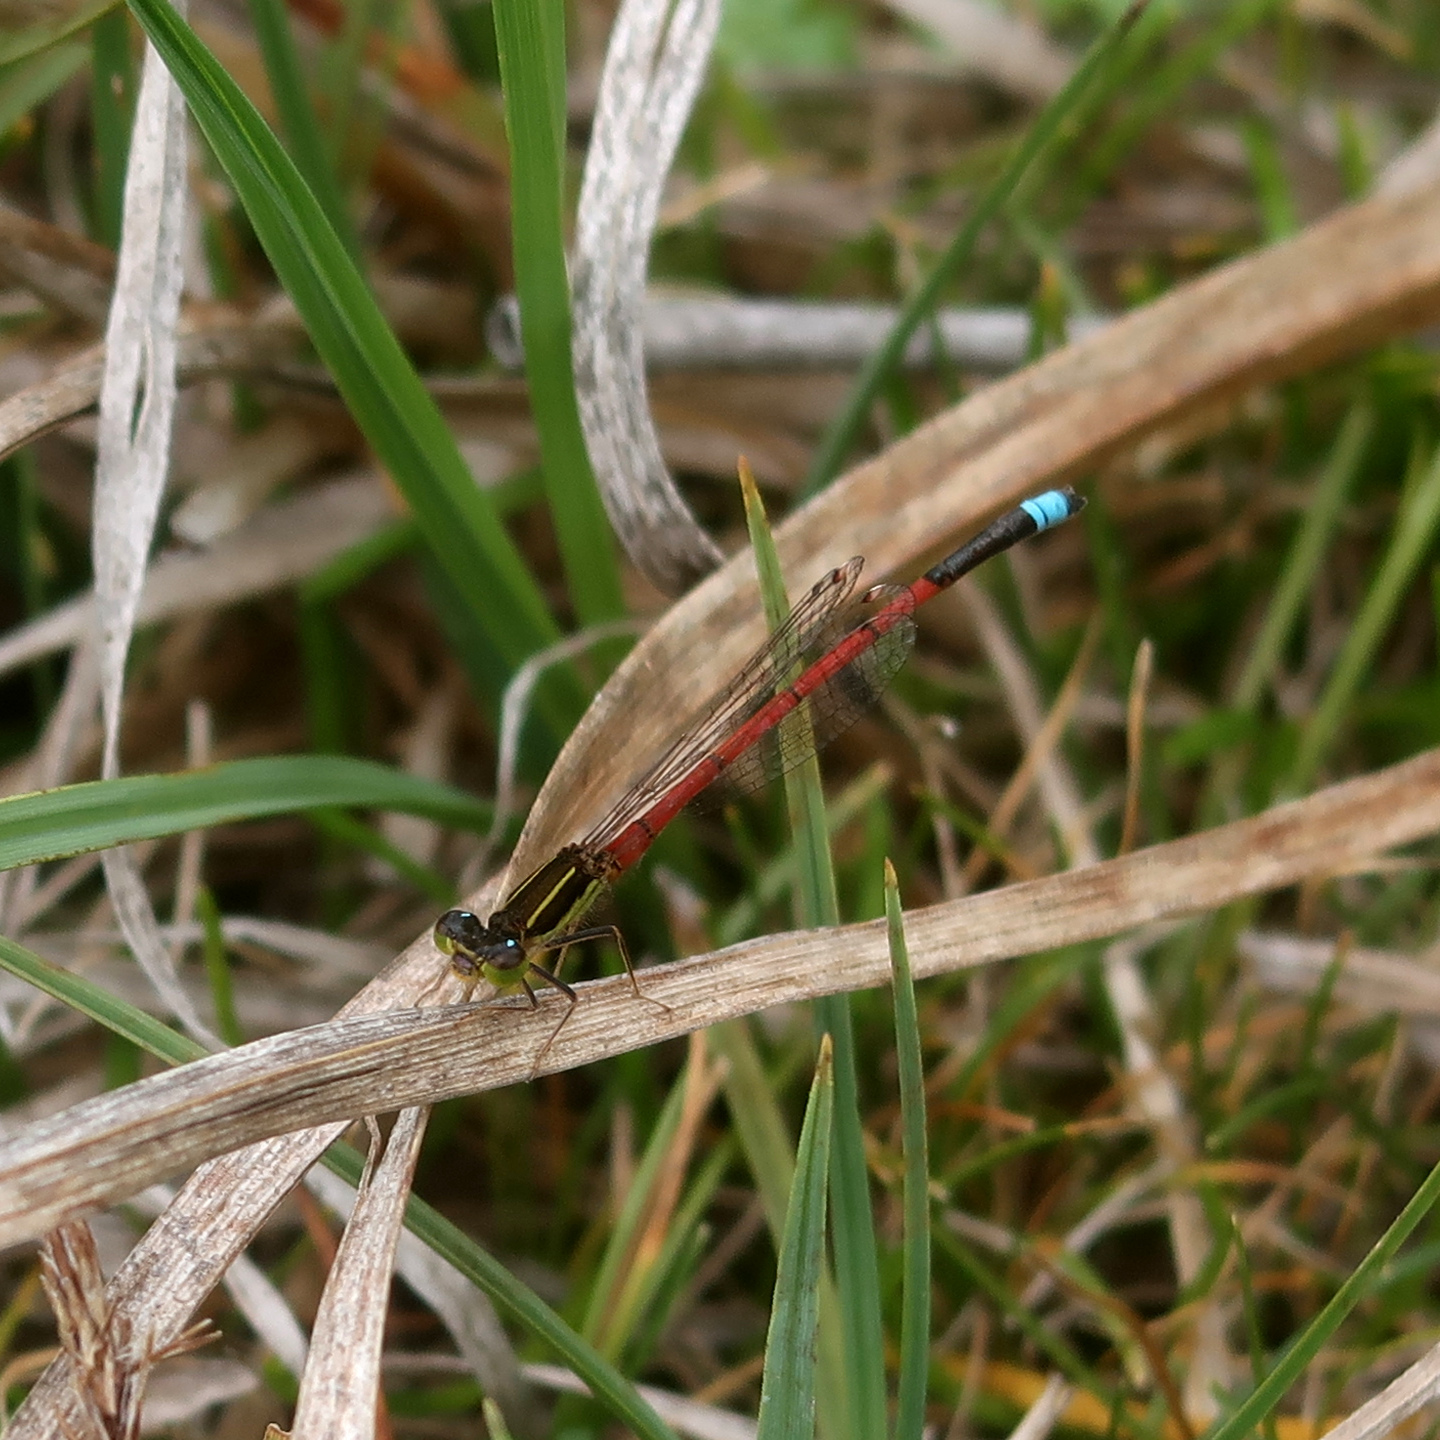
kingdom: Animalia
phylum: Arthropoda
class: Insecta
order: Odonata
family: Coenagrionidae
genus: Ischnura
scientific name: Ischnura aurora
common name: Gossamer damselfly
